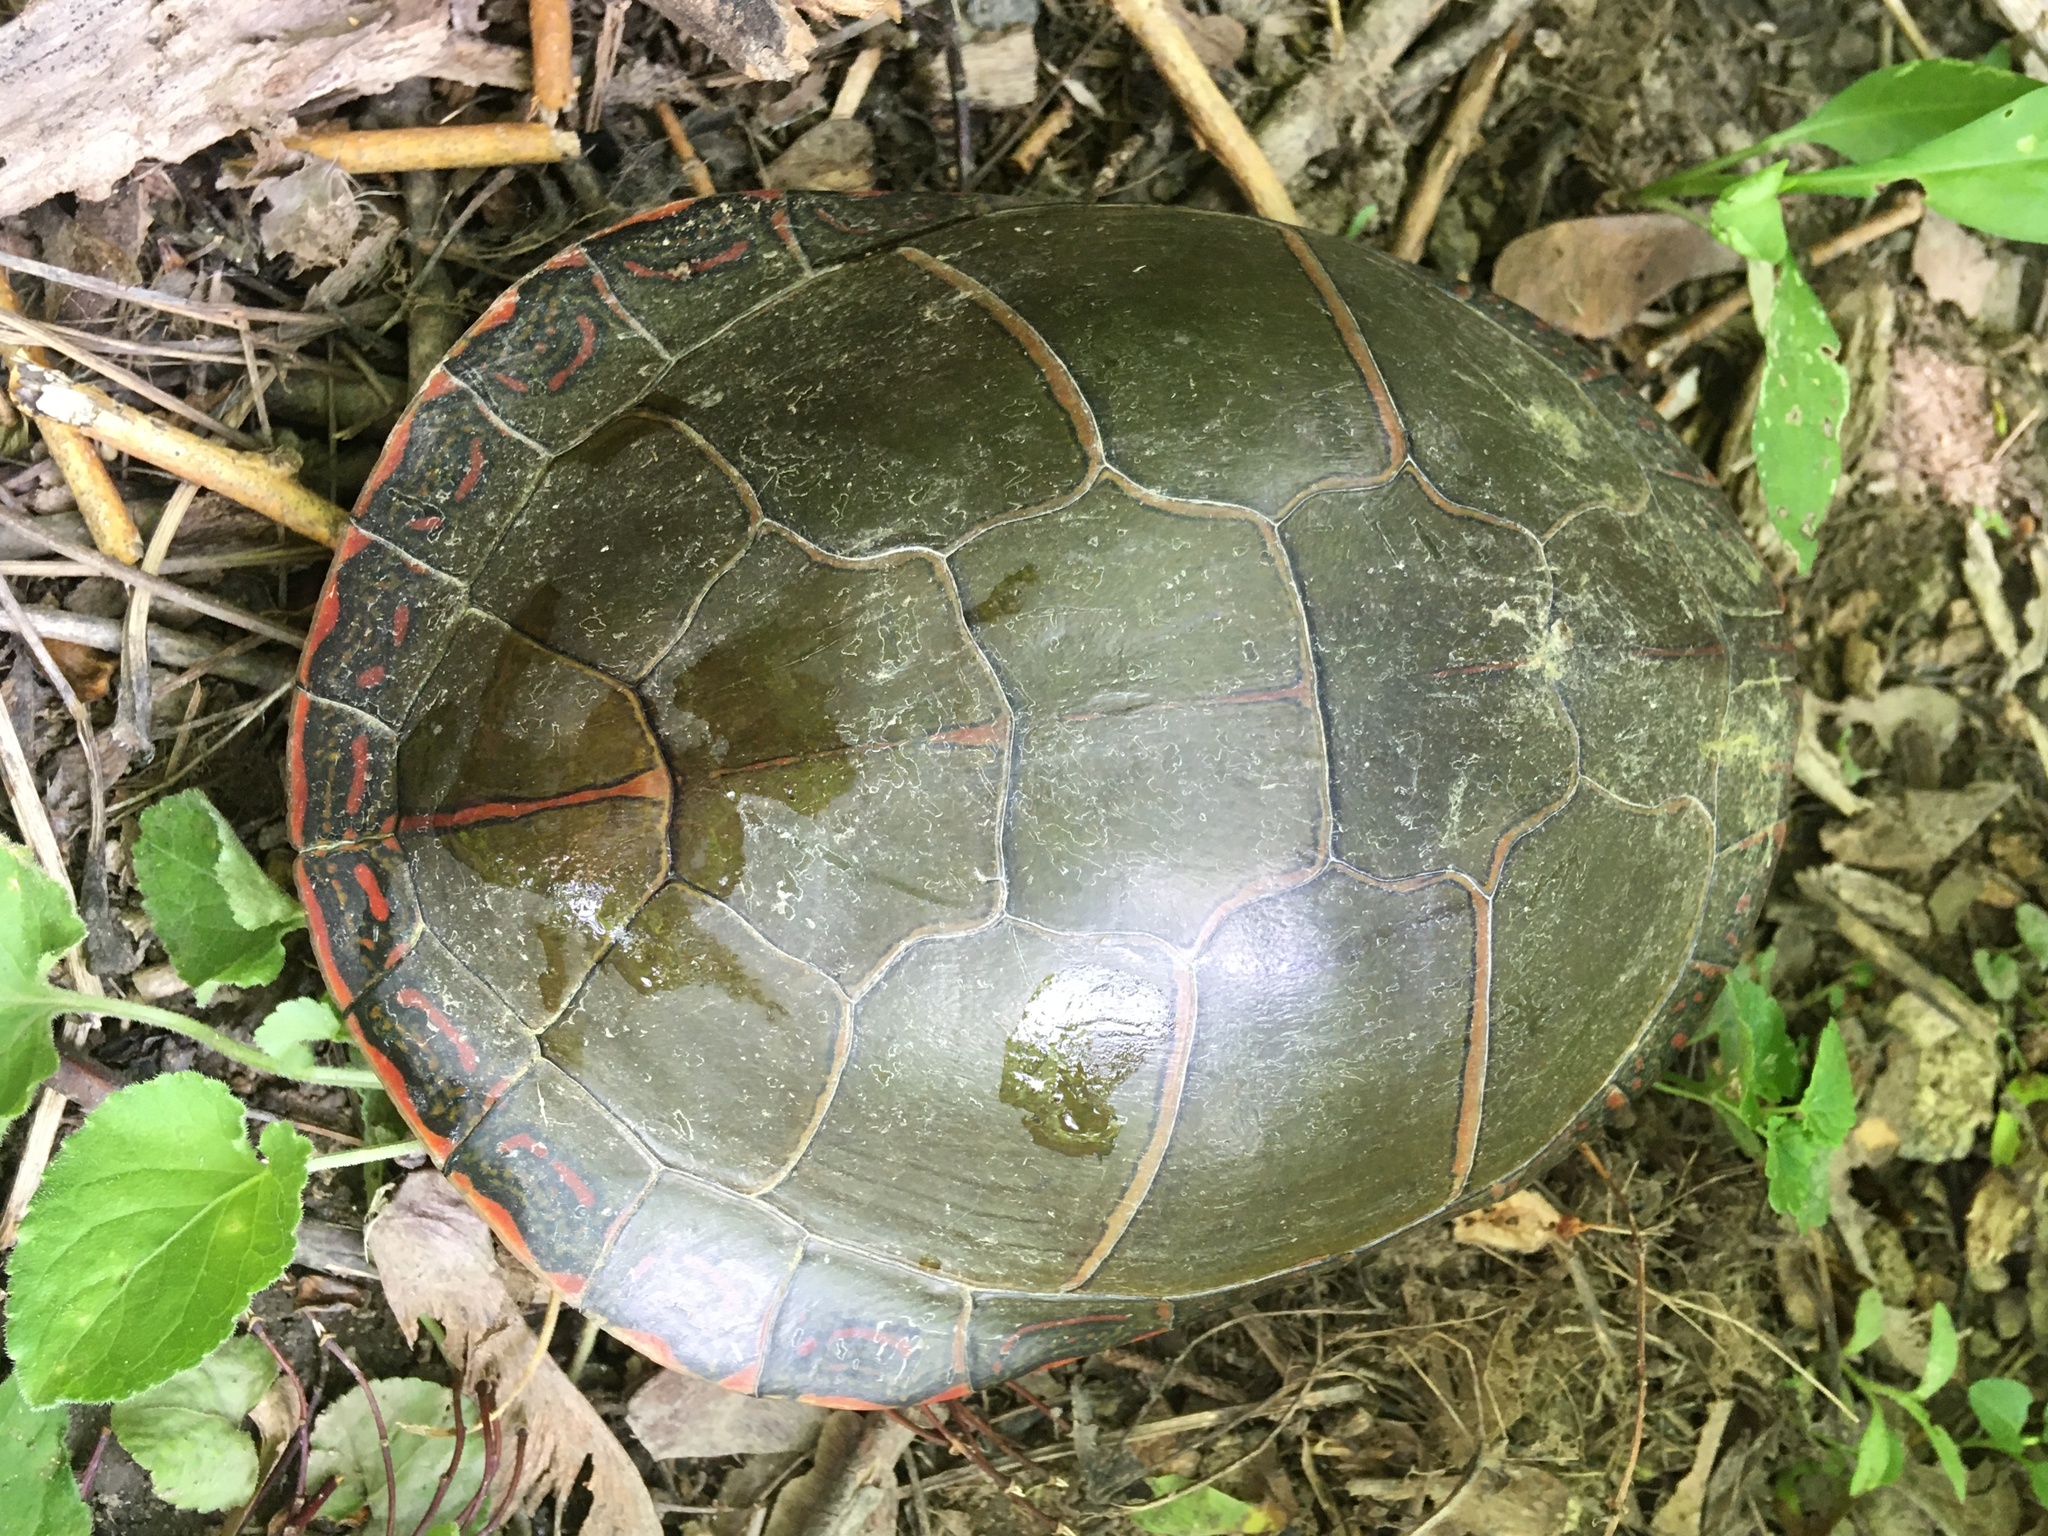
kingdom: Animalia
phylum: Chordata
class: Testudines
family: Emydidae
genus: Chrysemys
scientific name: Chrysemys picta
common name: Painted turtle
